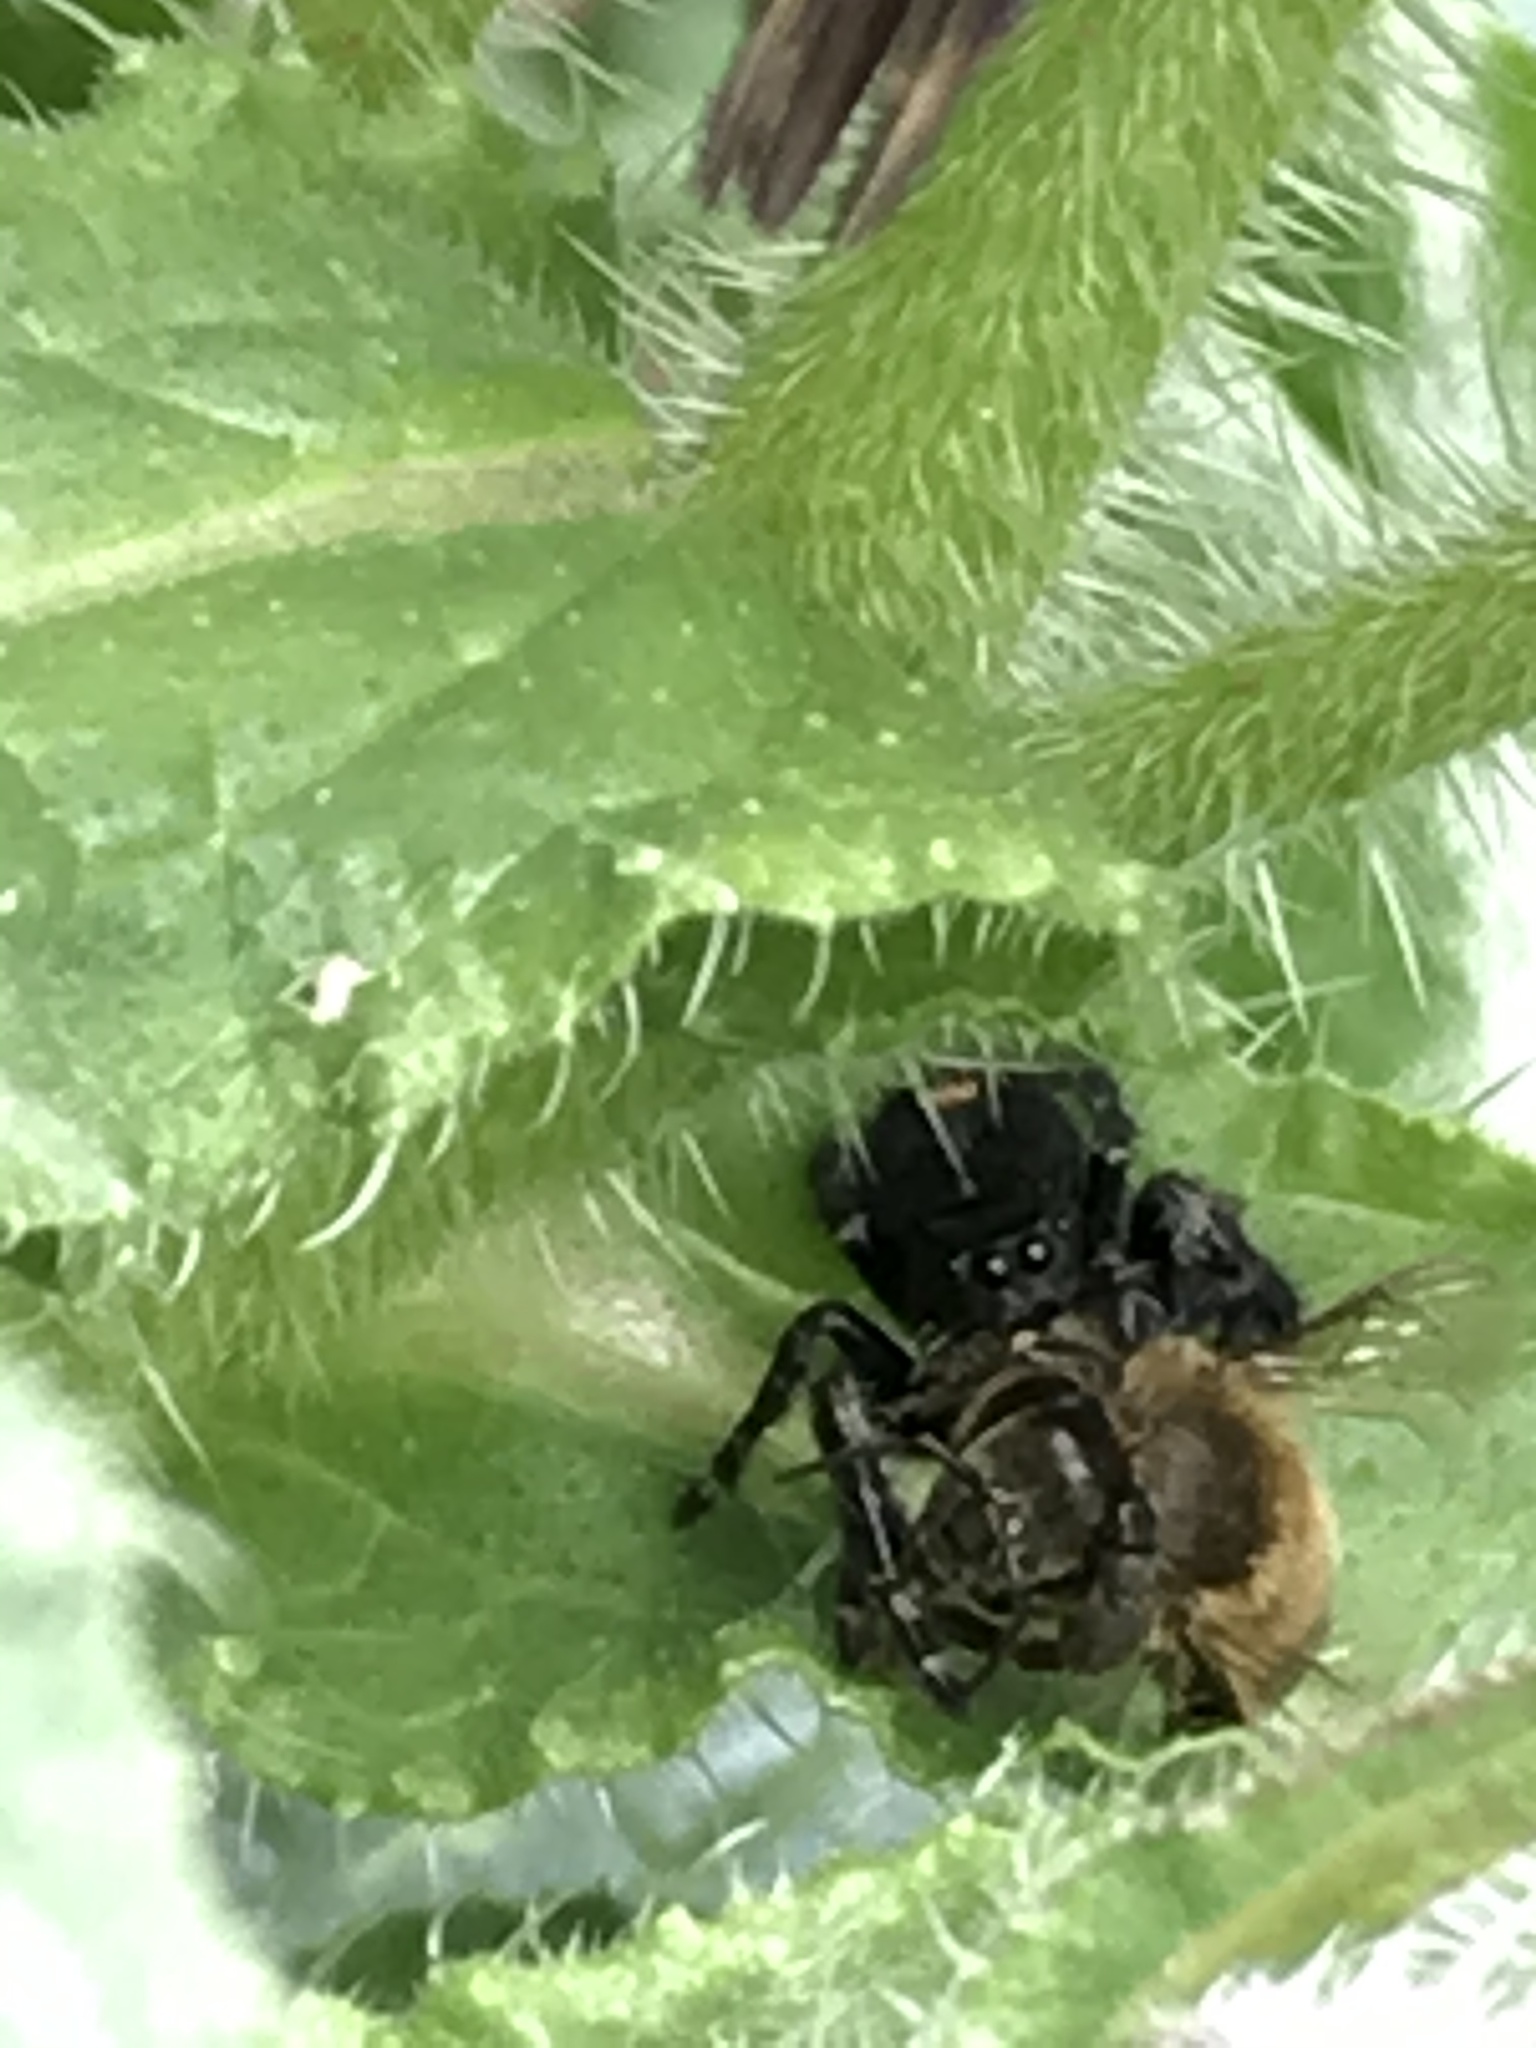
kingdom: Animalia
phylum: Arthropoda
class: Arachnida
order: Araneae
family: Salticidae
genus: Phidippus
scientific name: Phidippus audax
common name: Bold jumper
